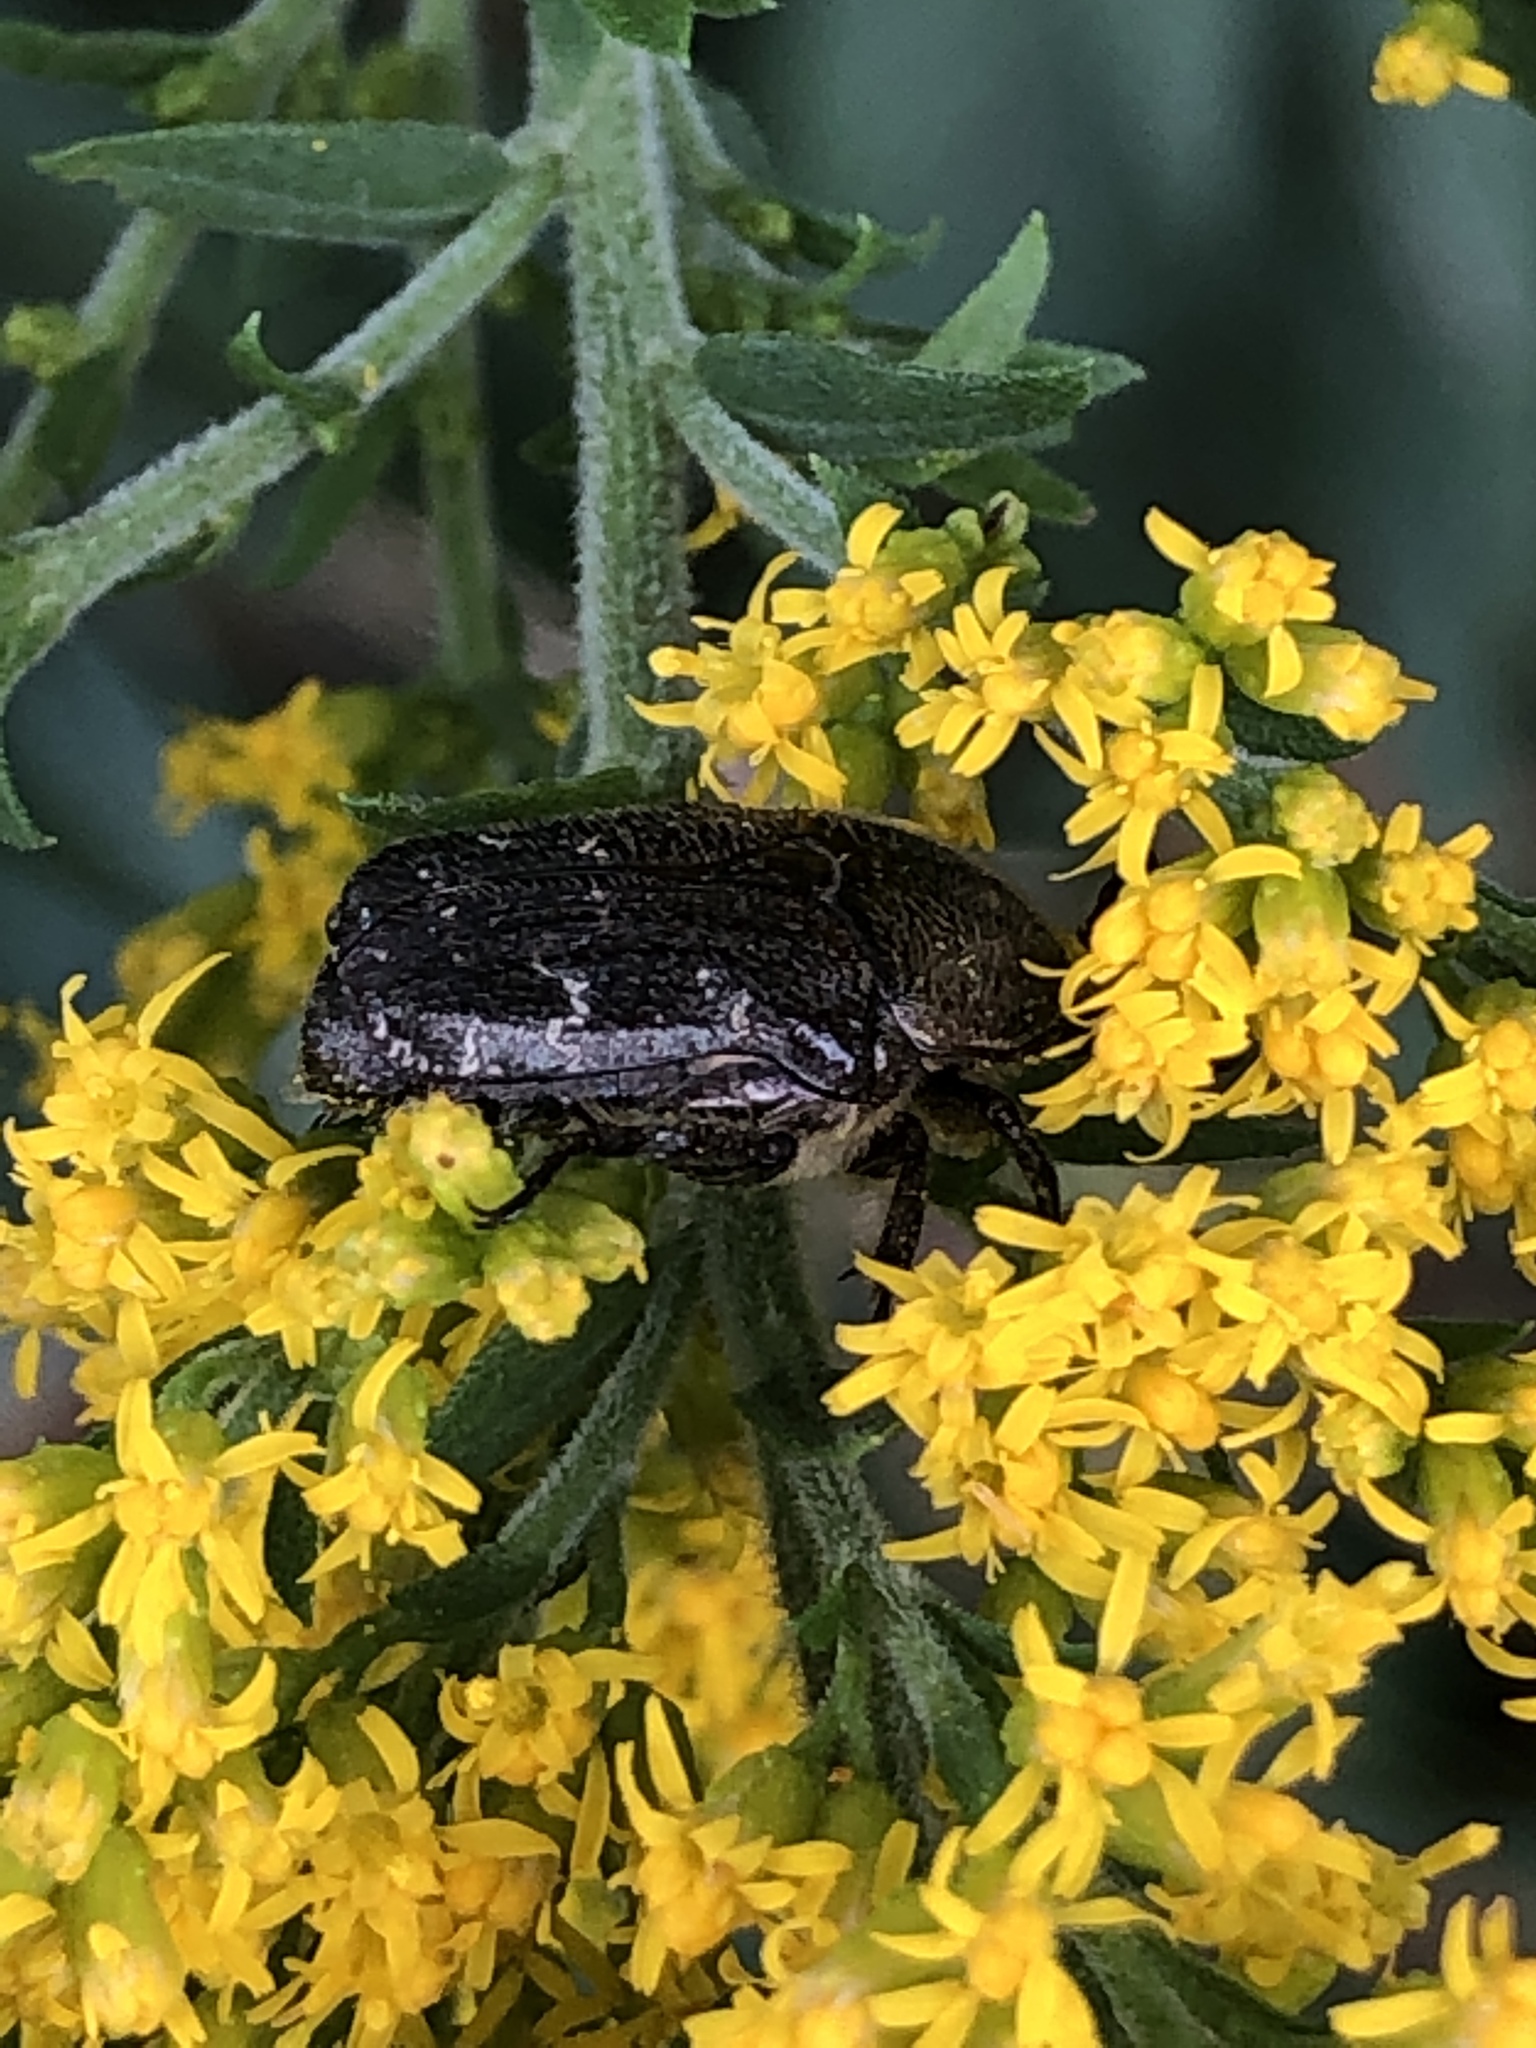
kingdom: Animalia
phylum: Arthropoda
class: Insecta
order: Coleoptera
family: Scarabaeidae
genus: Euphoria
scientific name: Euphoria sepulcralis
